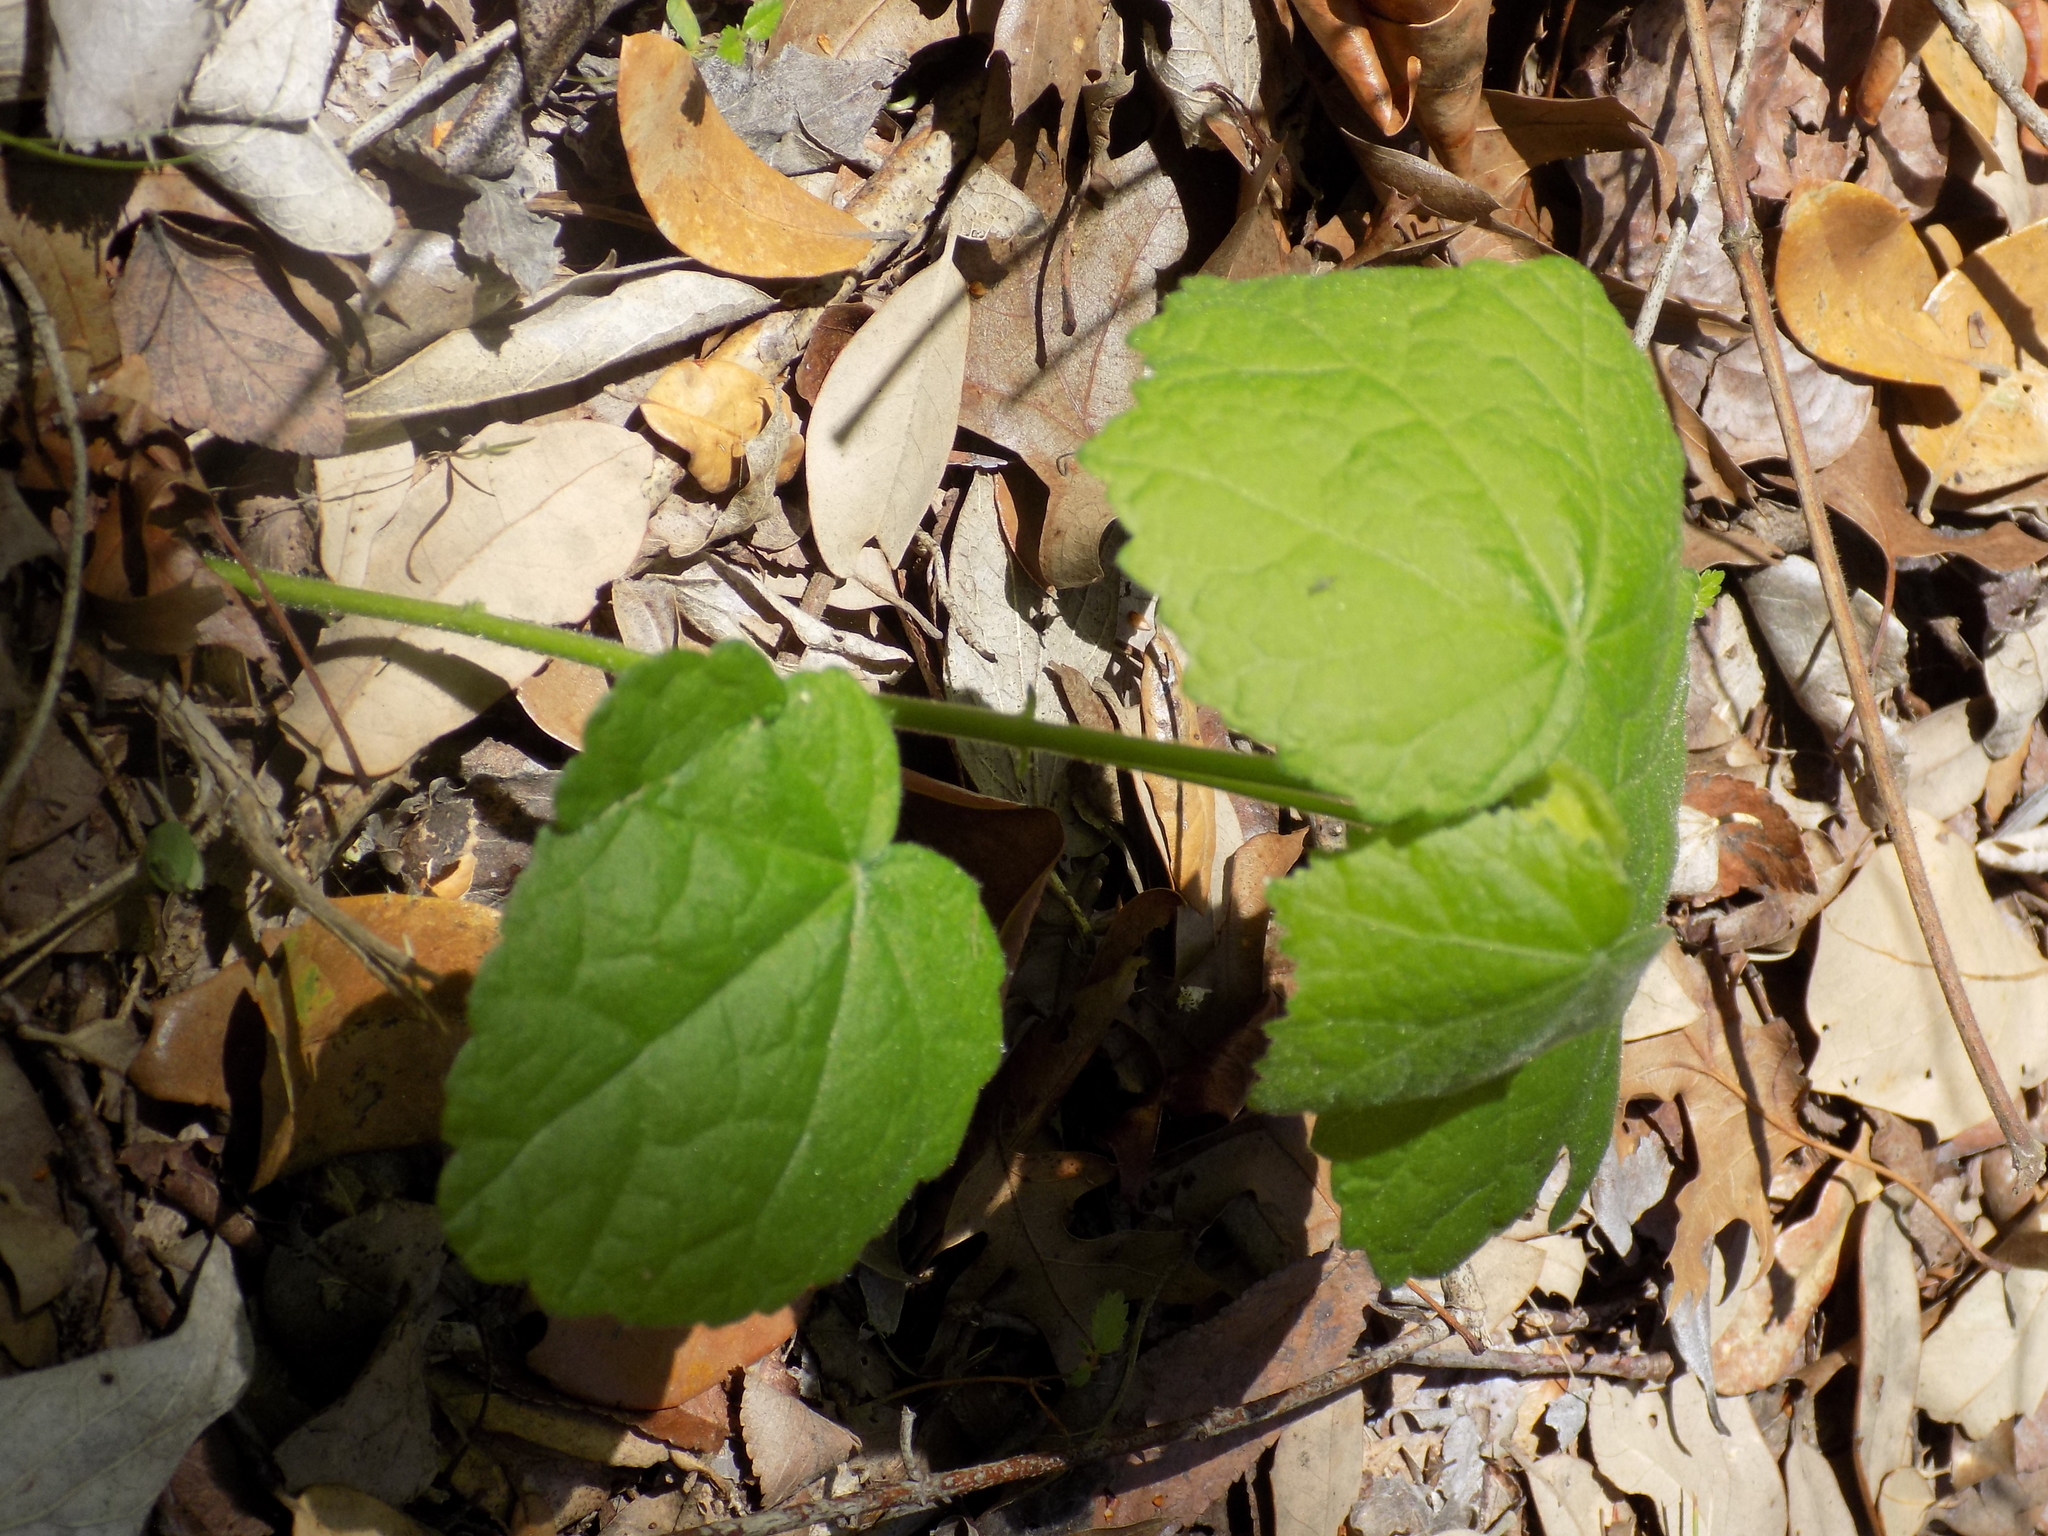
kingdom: Plantae
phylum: Tracheophyta
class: Magnoliopsida
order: Malvales
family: Malvaceae
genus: Malvaviscus
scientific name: Malvaviscus arboreus
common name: Wax mallow
